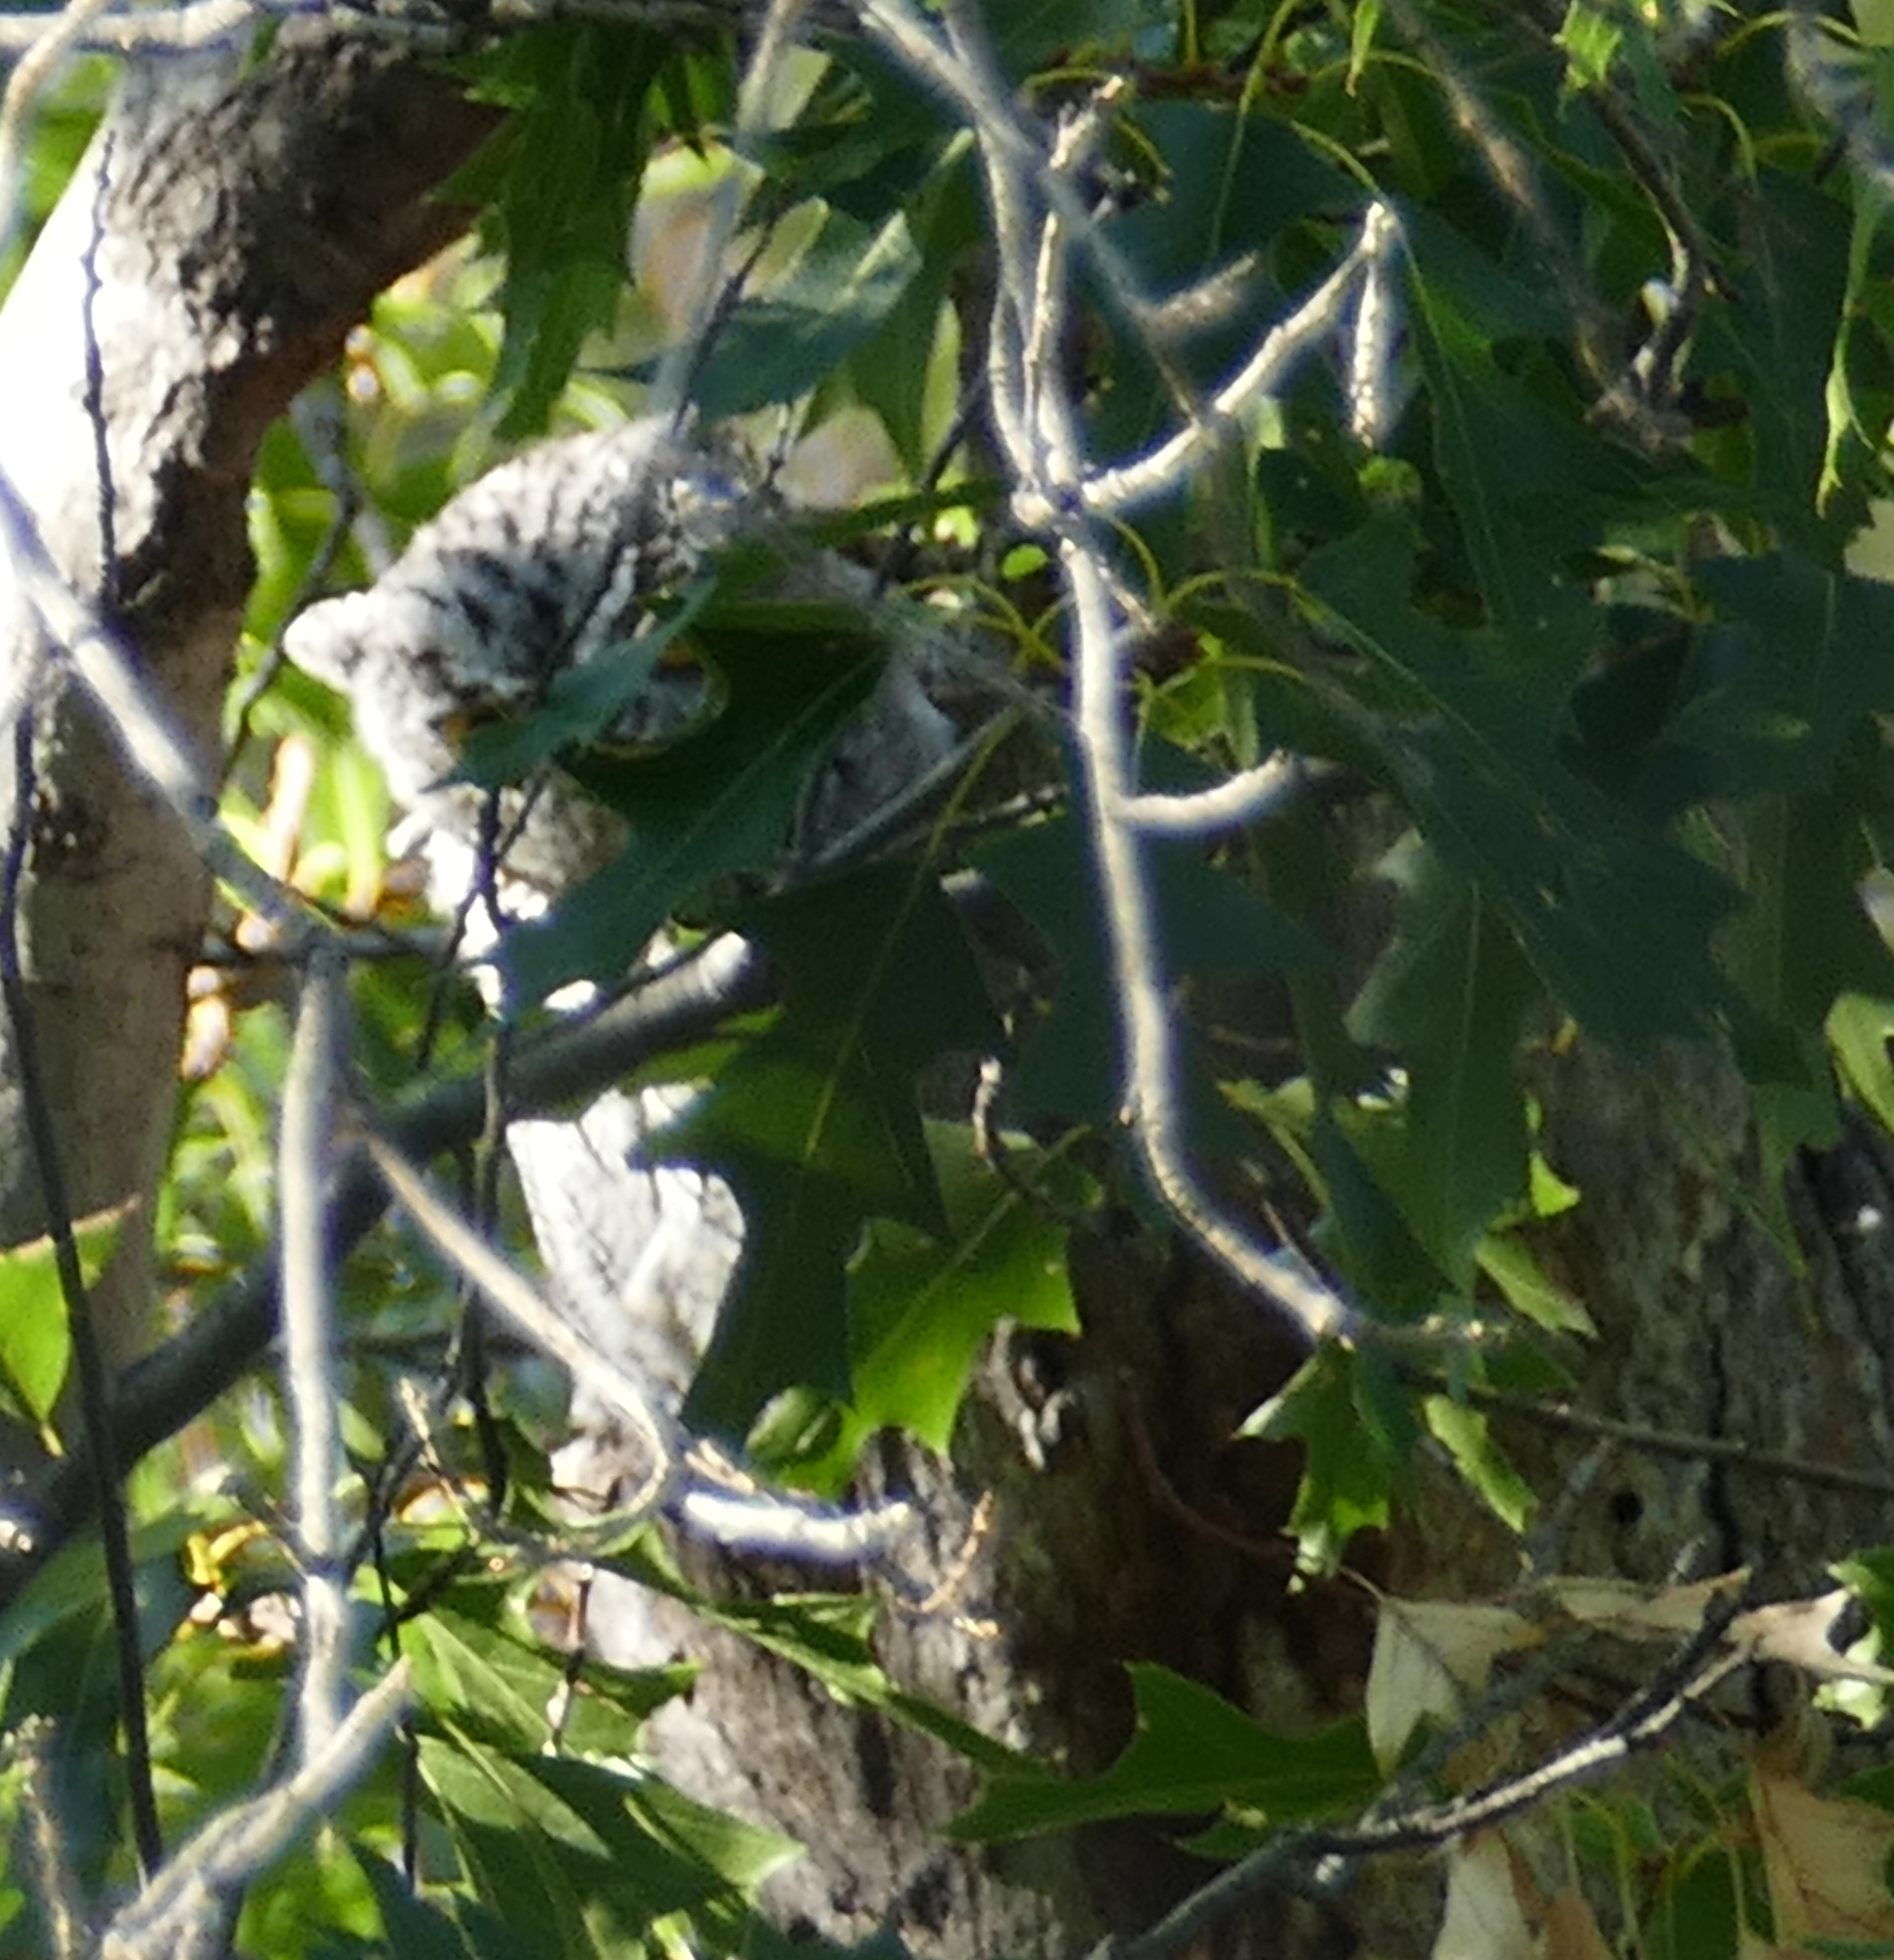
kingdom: Animalia
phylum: Chordata
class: Aves
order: Strigiformes
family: Strigidae
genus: Megascops
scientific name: Megascops kennicottii
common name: Western screech-owl
